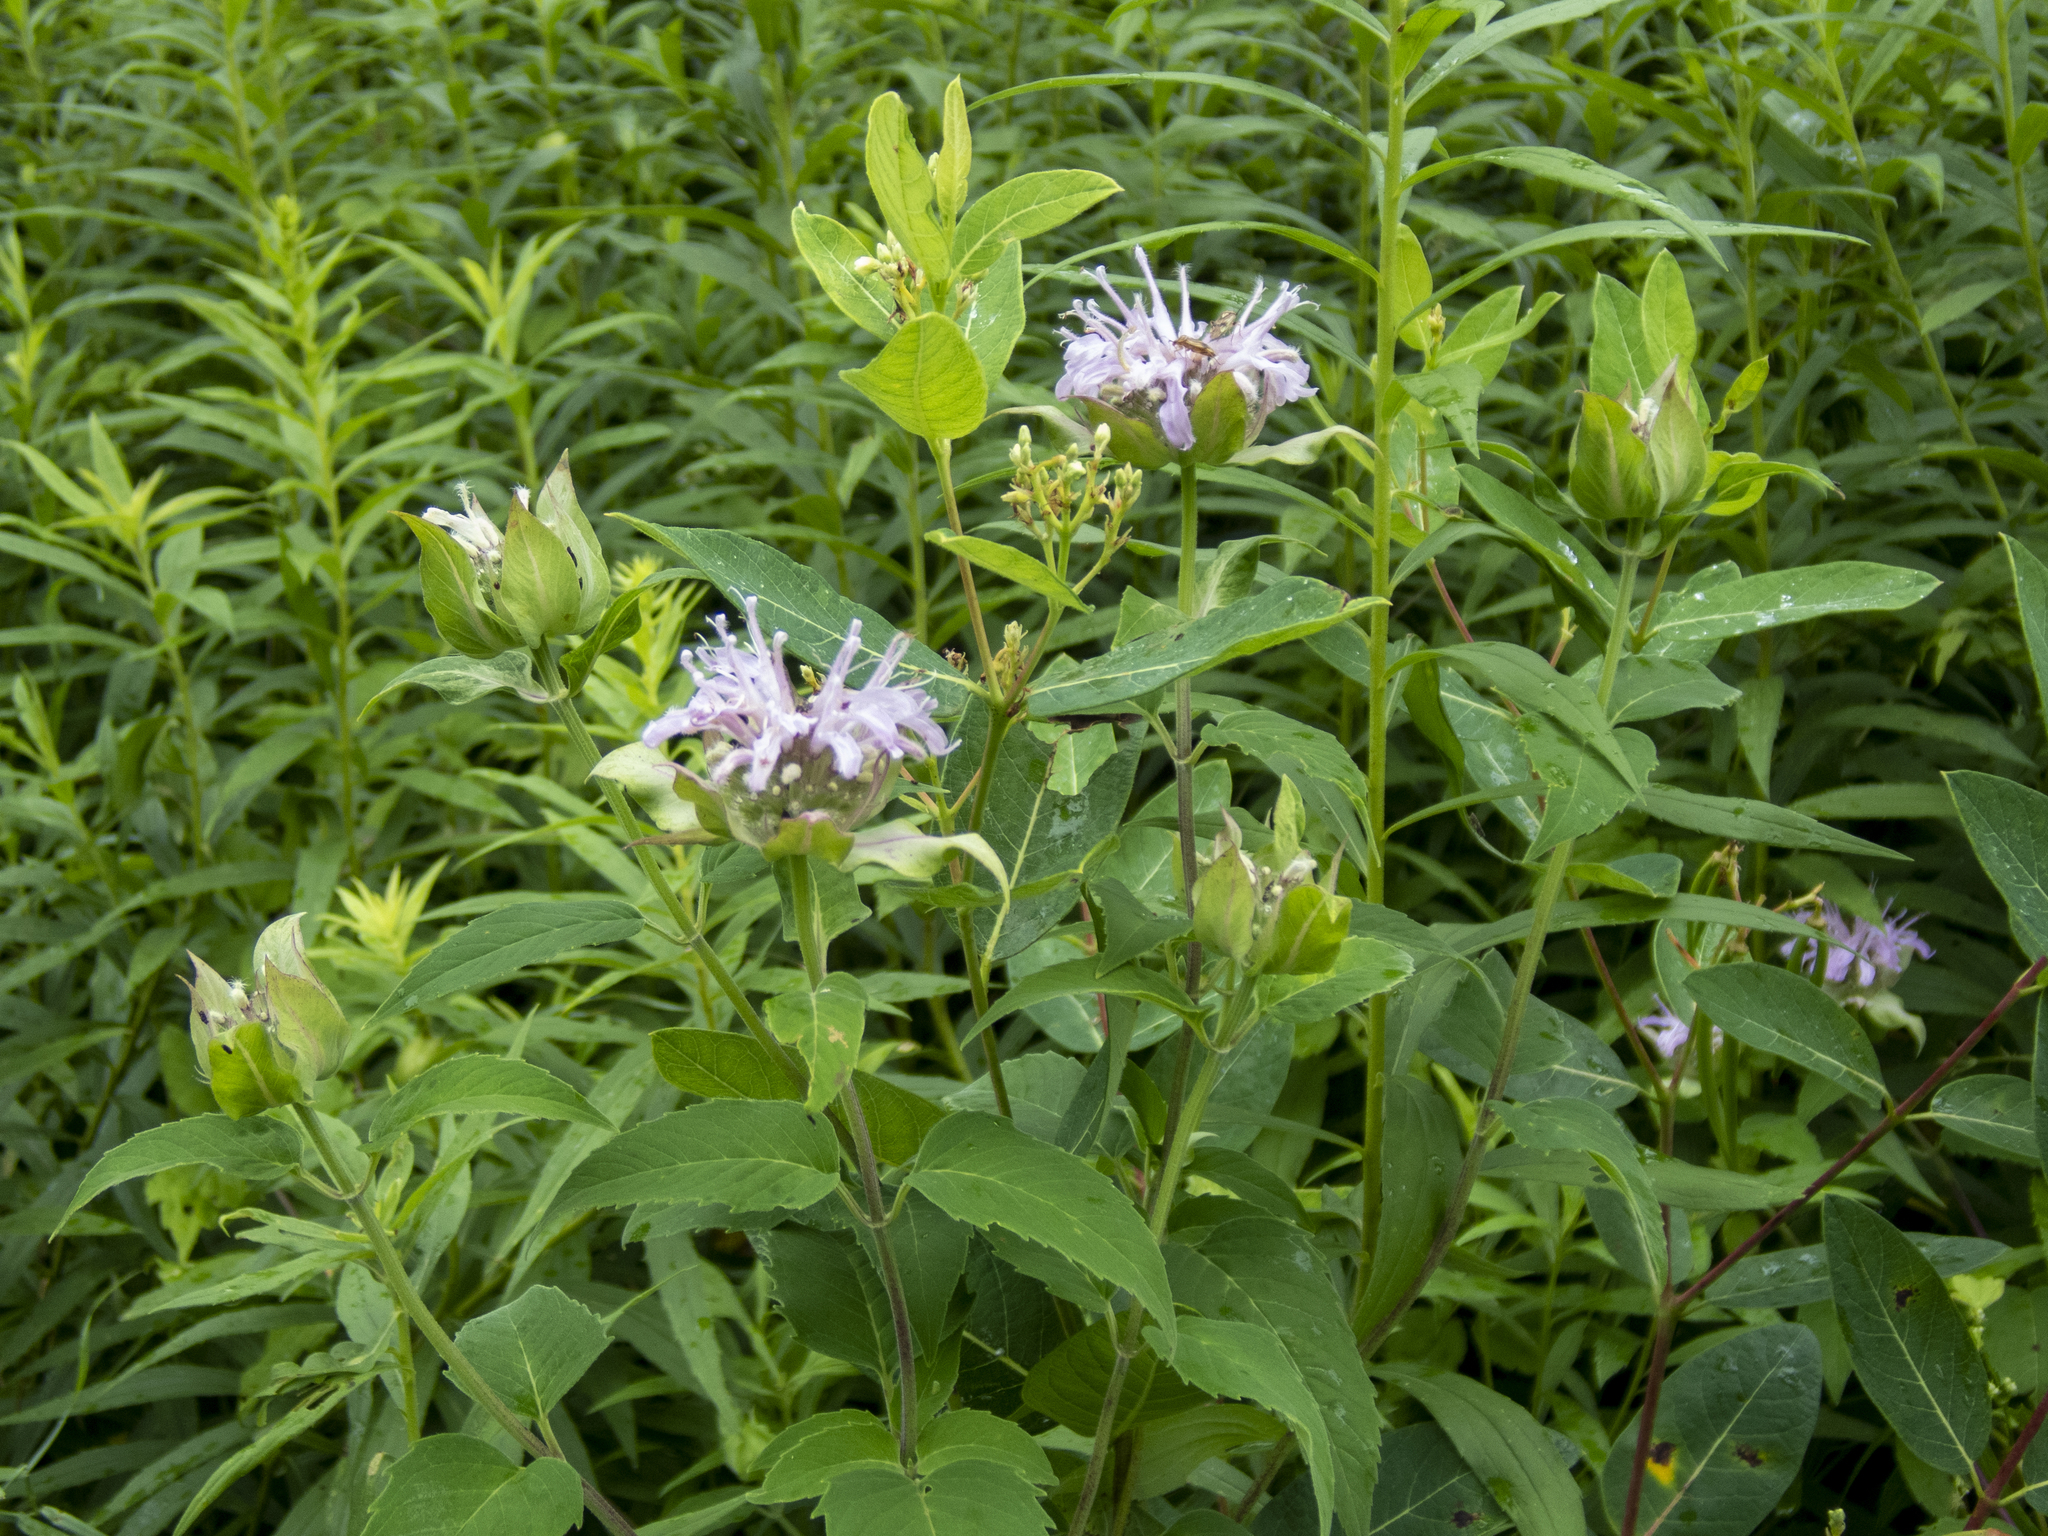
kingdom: Plantae
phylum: Tracheophyta
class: Magnoliopsida
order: Lamiales
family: Lamiaceae
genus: Monarda
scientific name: Monarda fistulosa
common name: Purple beebalm
